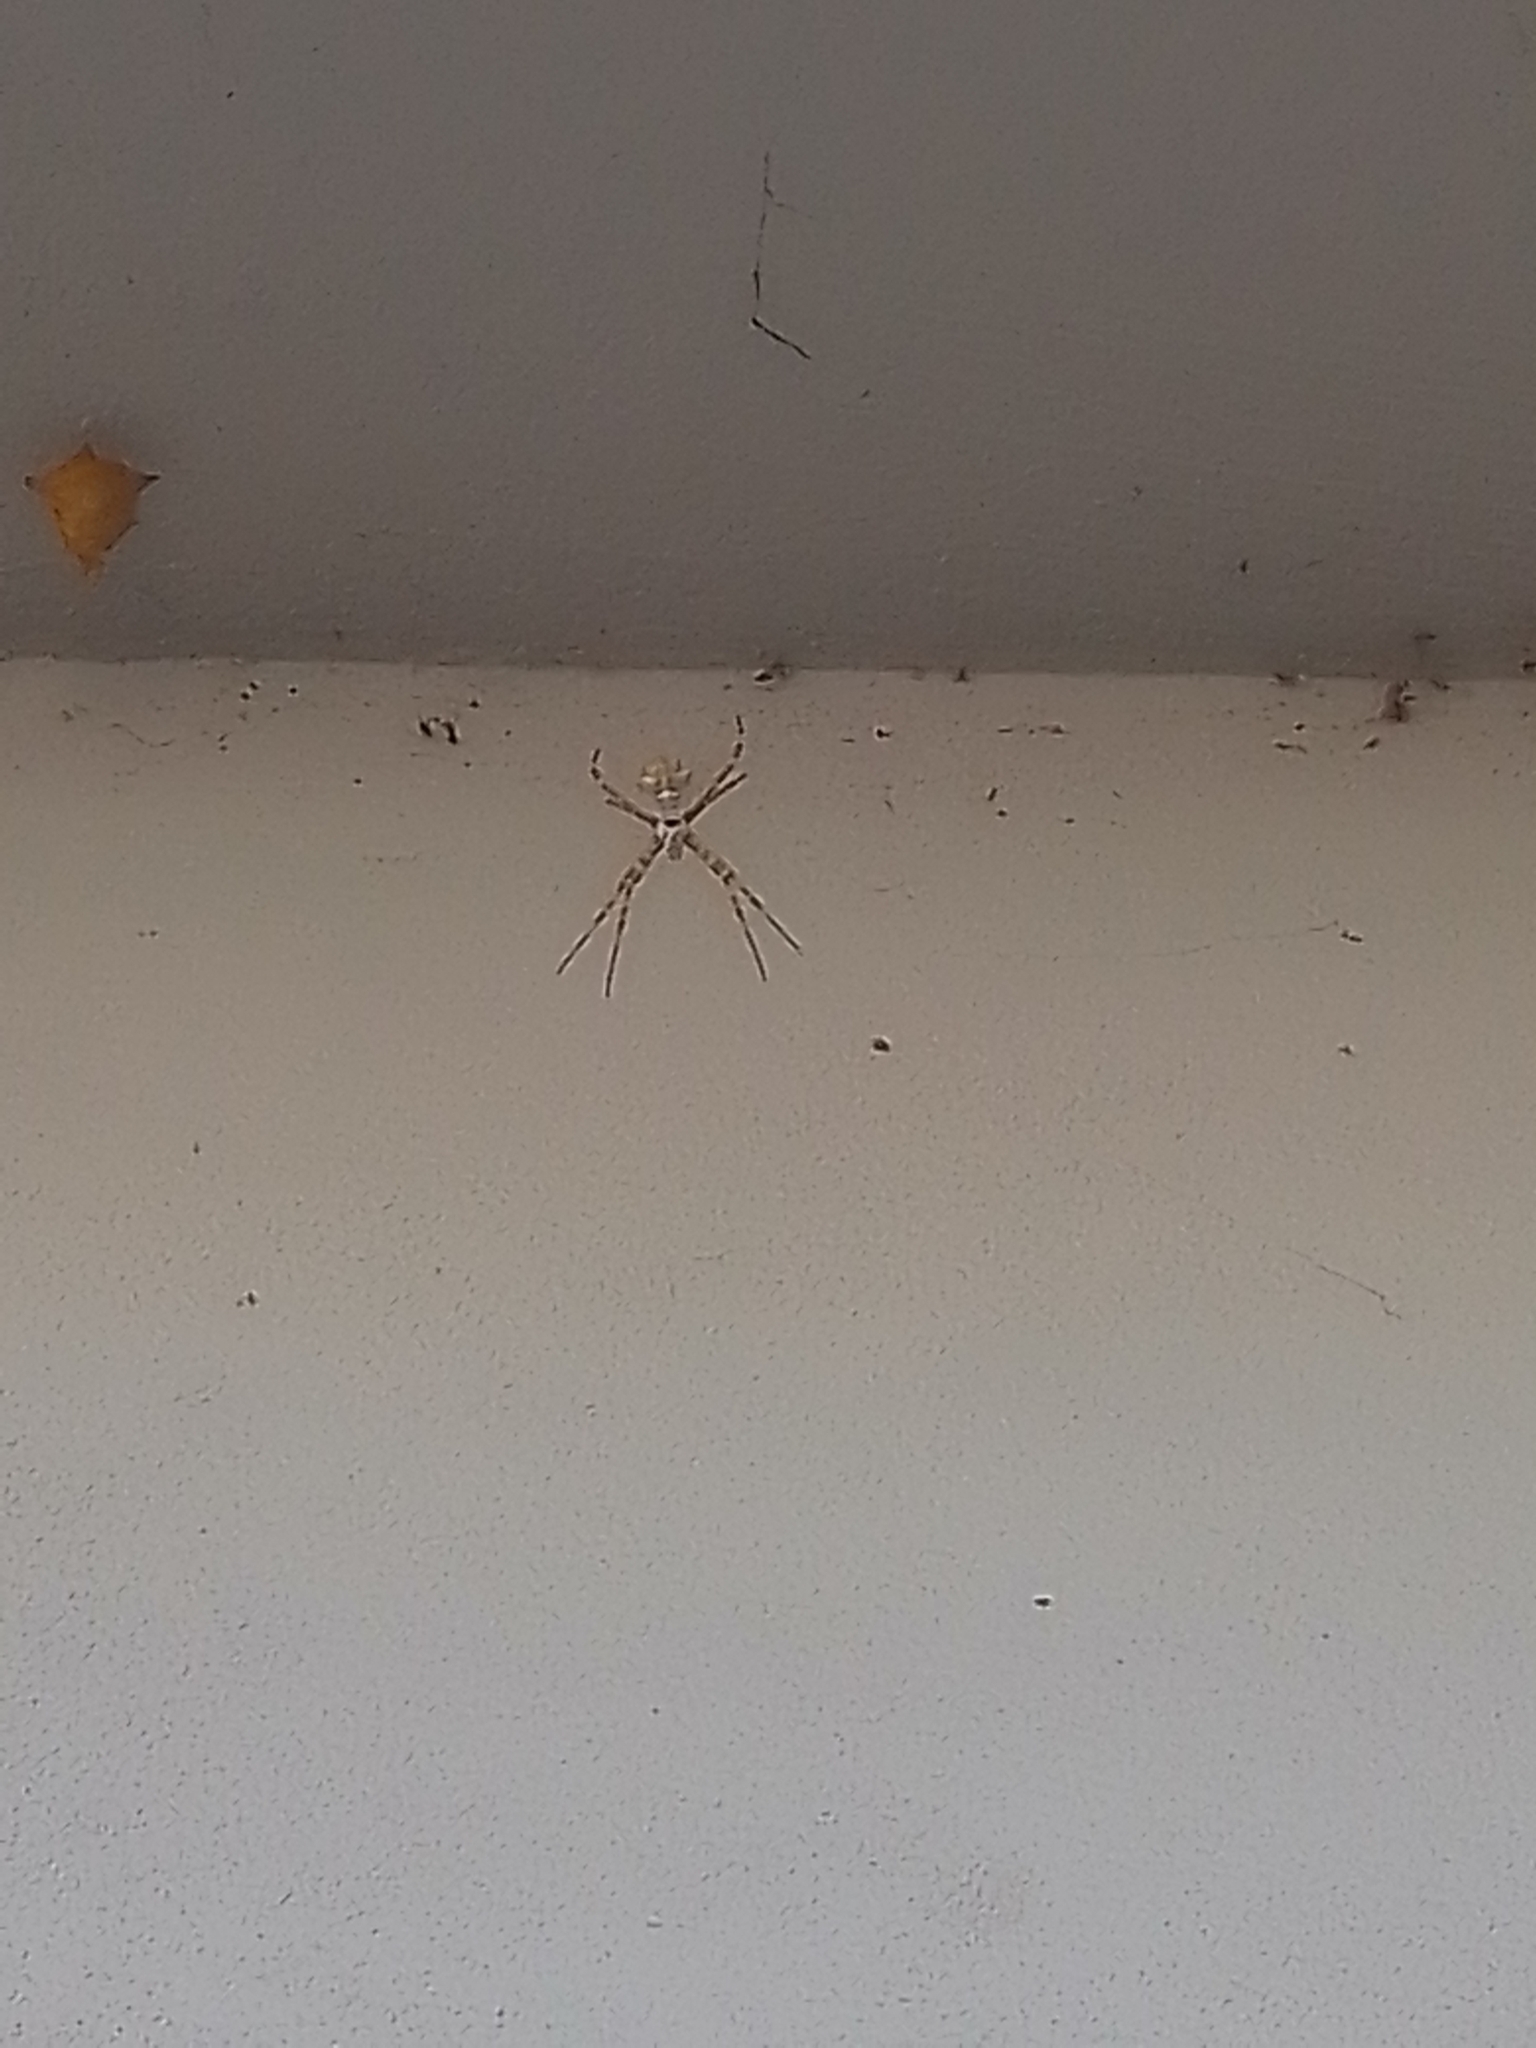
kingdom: Animalia
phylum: Arthropoda
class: Arachnida
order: Araneae
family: Araneidae
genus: Argiope
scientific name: Argiope argentata
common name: Orb weavers
